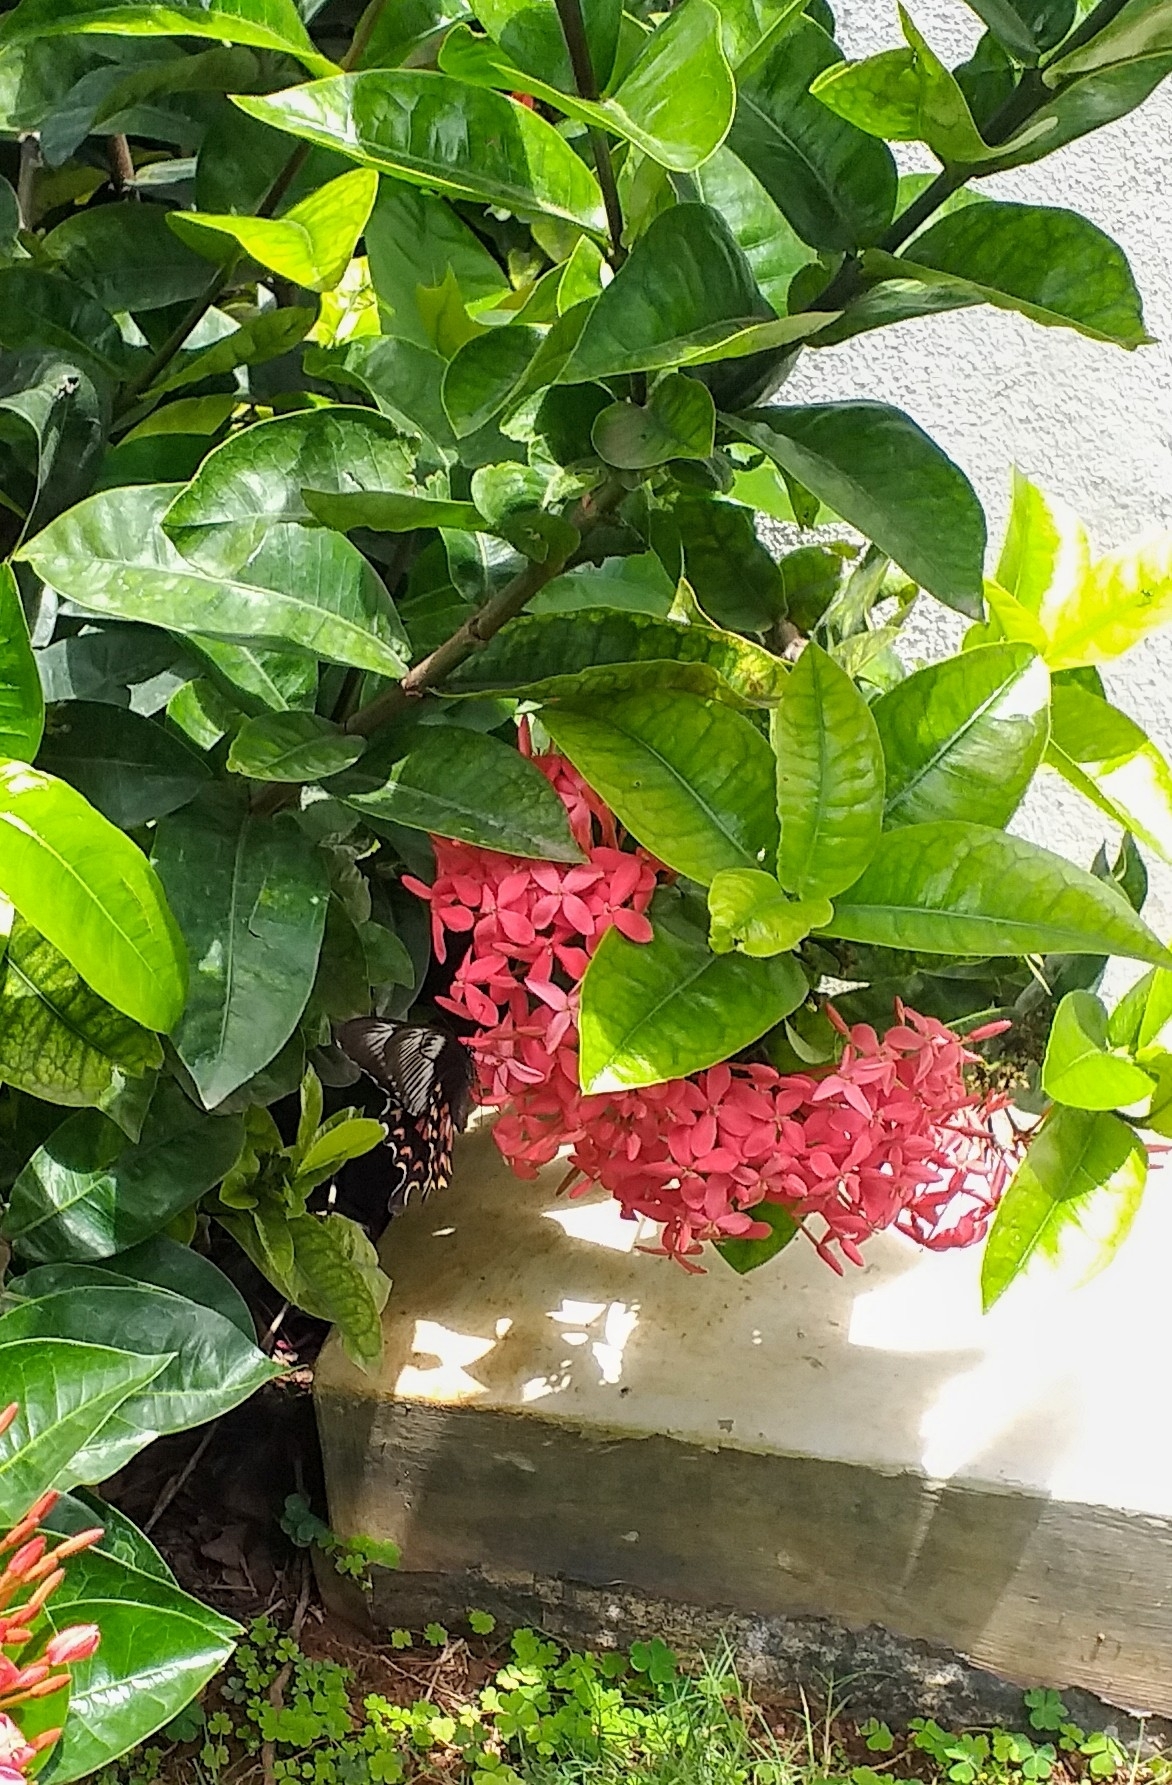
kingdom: Animalia
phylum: Arthropoda
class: Insecta
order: Lepidoptera
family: Papilionidae
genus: Papilio
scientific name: Papilio polytes
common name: Common mormon
